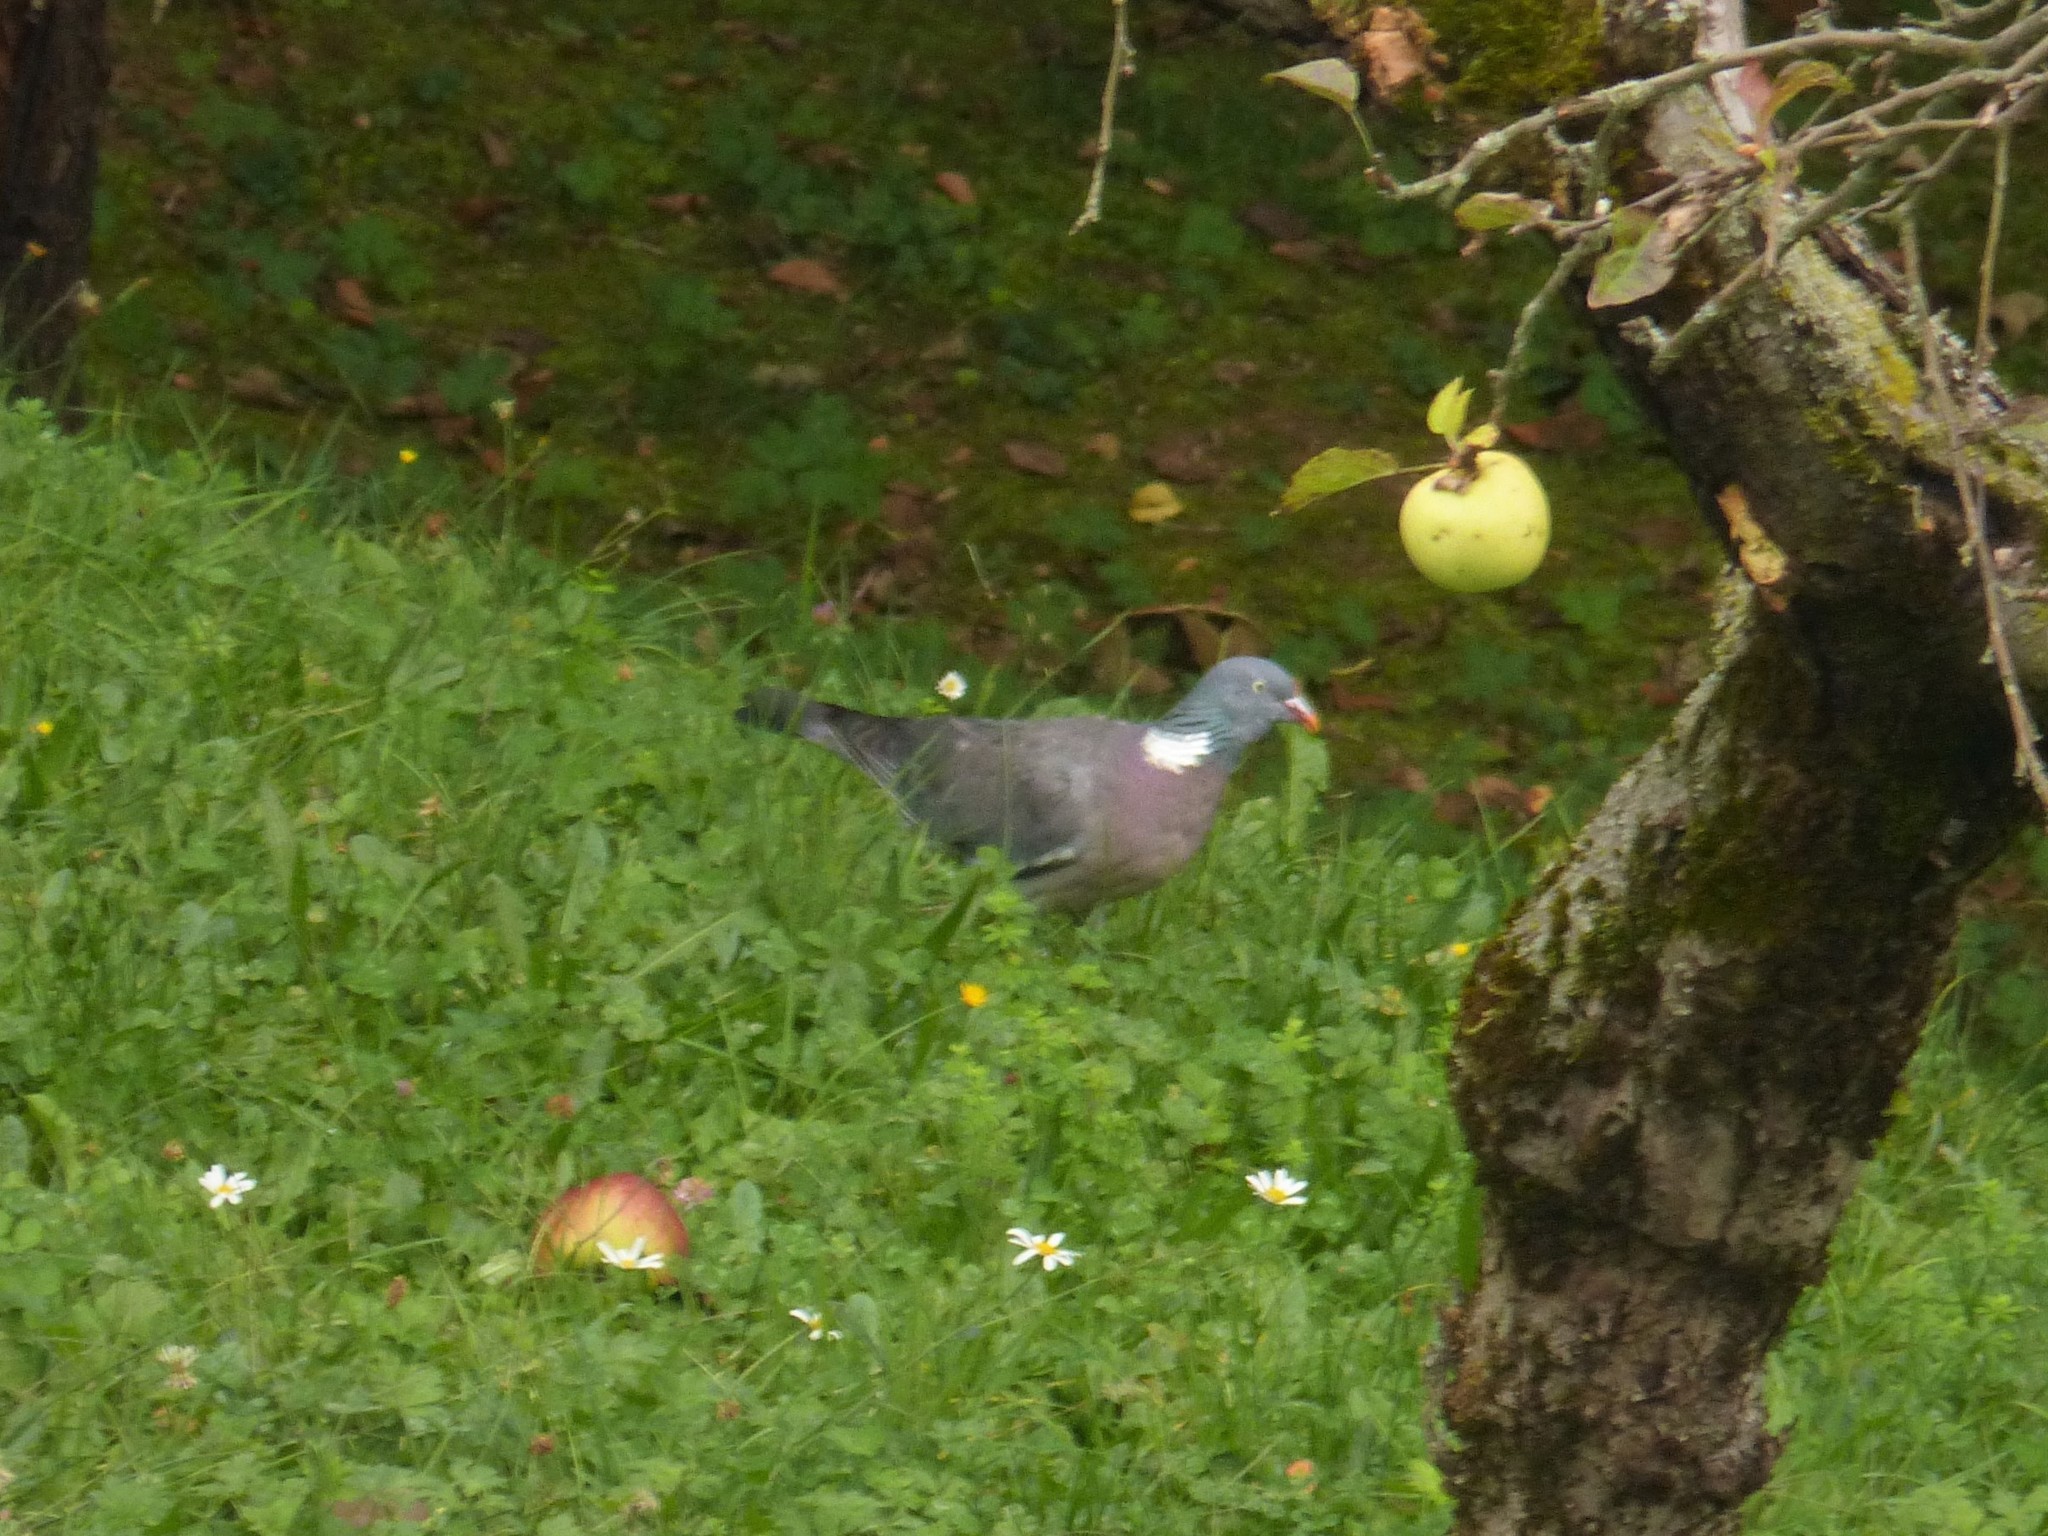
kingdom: Animalia
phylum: Chordata
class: Aves
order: Columbiformes
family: Columbidae
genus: Columba
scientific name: Columba palumbus
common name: Common wood pigeon
